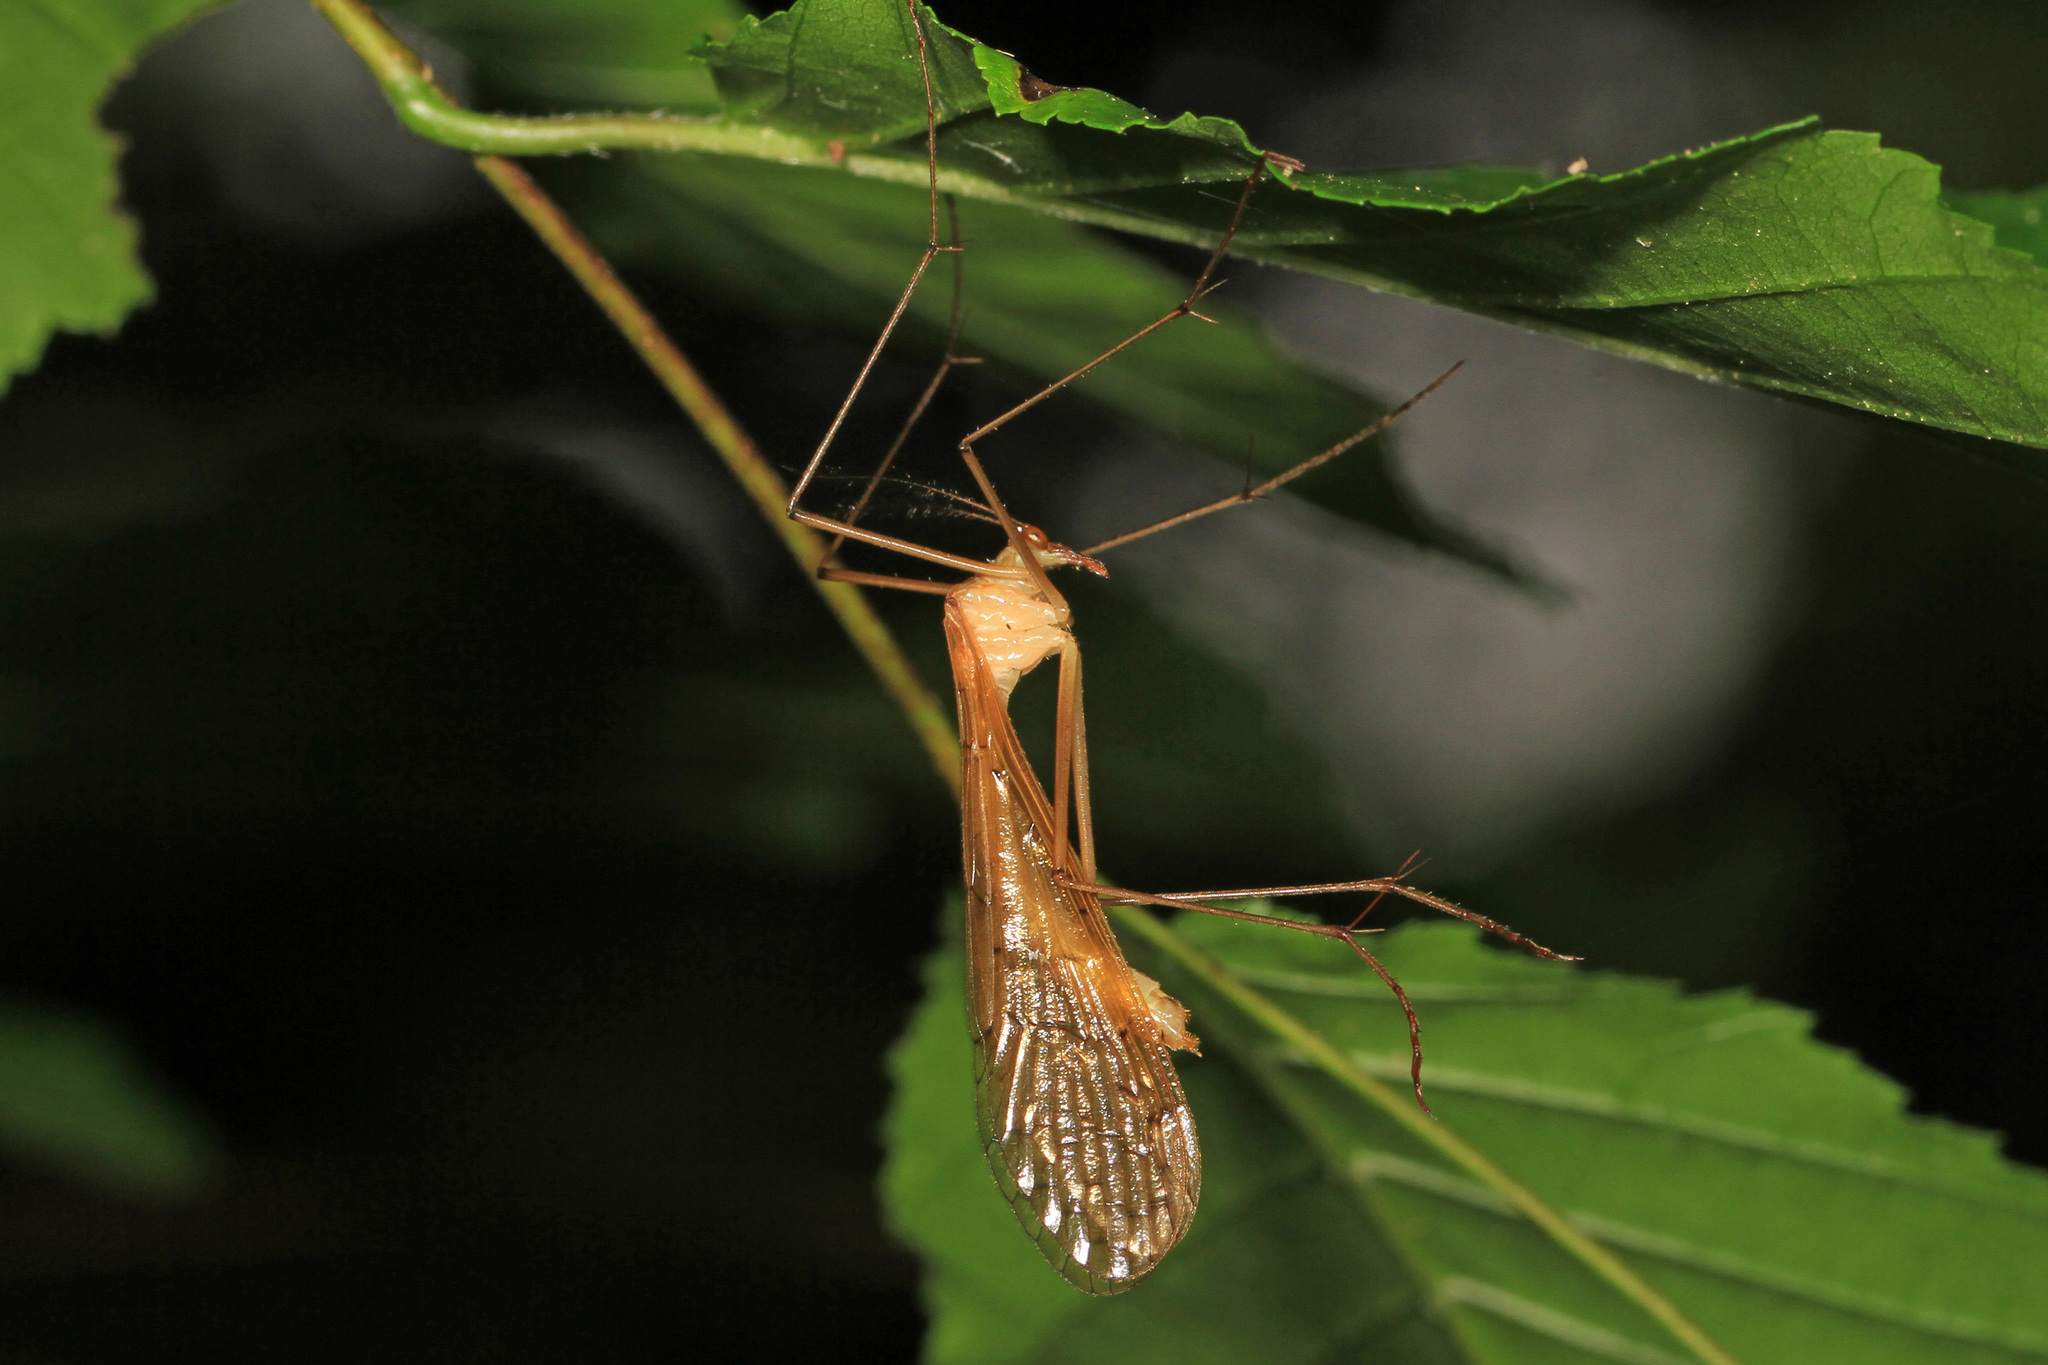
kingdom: Animalia
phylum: Arthropoda
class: Insecta
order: Mecoptera
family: Bittacidae
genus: Bittacus
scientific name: Bittacus pilicornis
